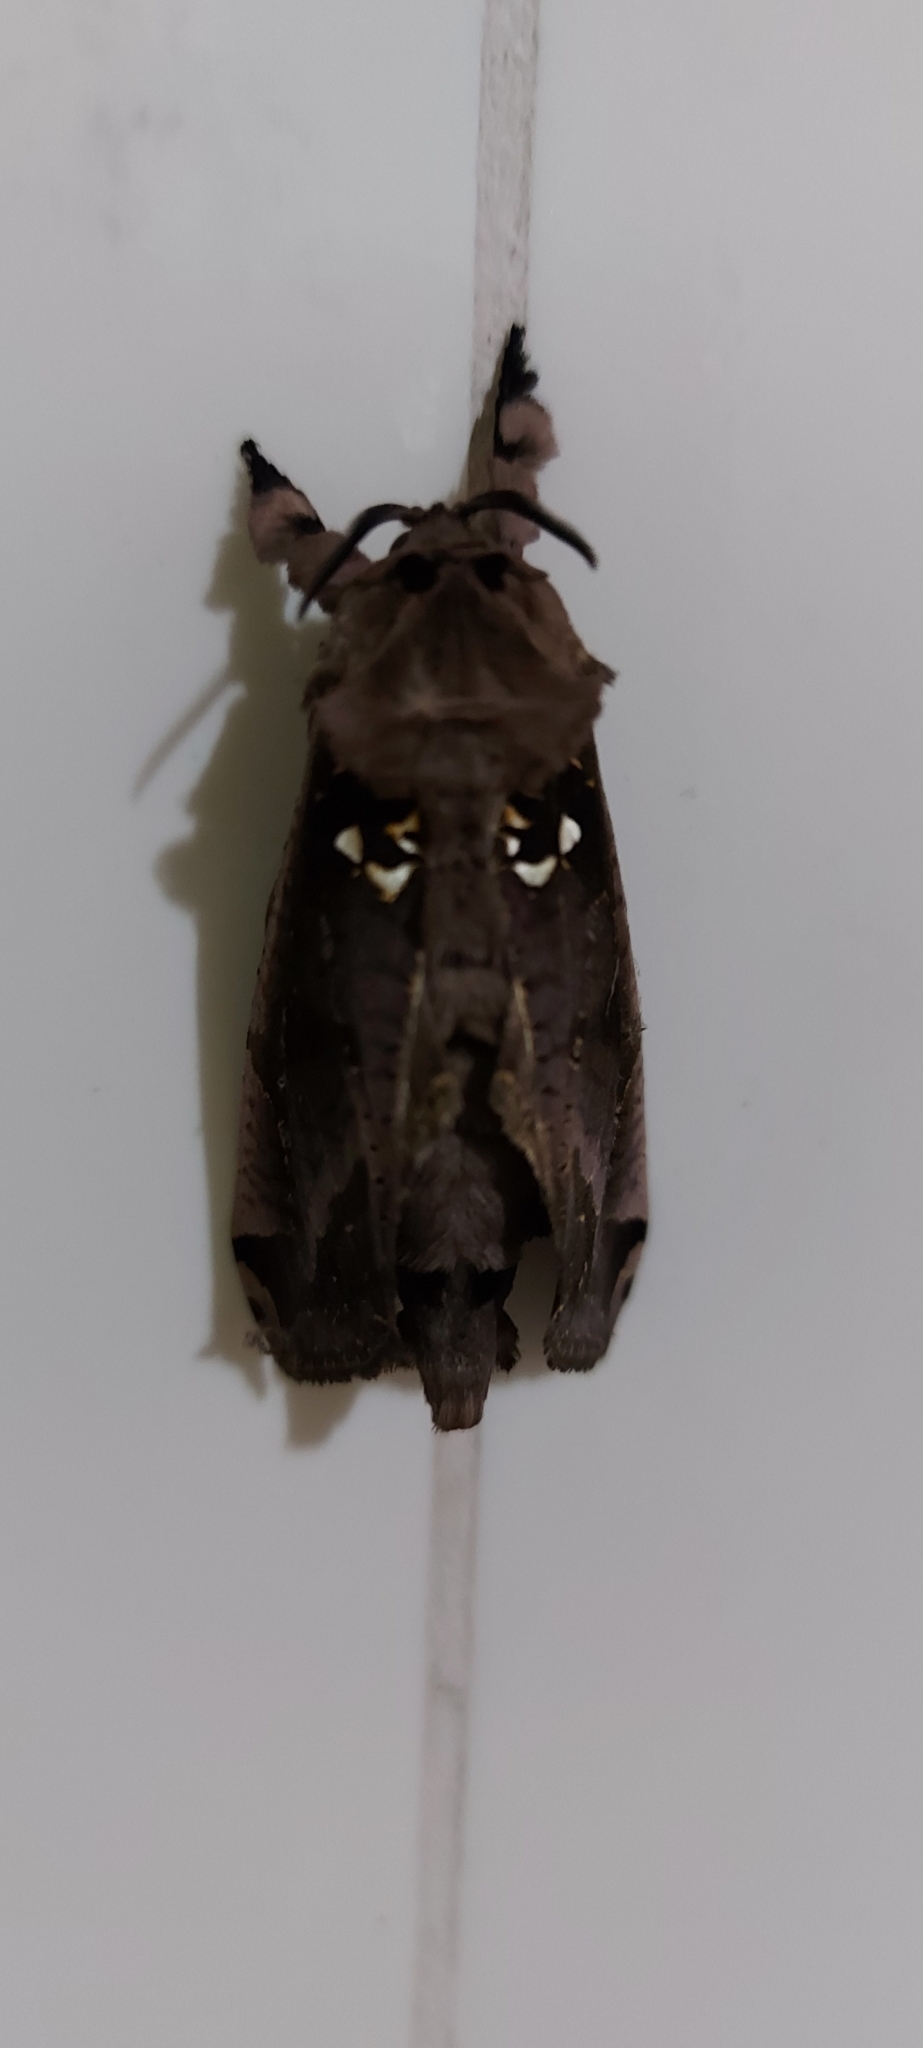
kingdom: Animalia
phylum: Arthropoda
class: Insecta
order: Lepidoptera
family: Cossidae
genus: Langsdorfia
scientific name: Langsdorfia franckii
